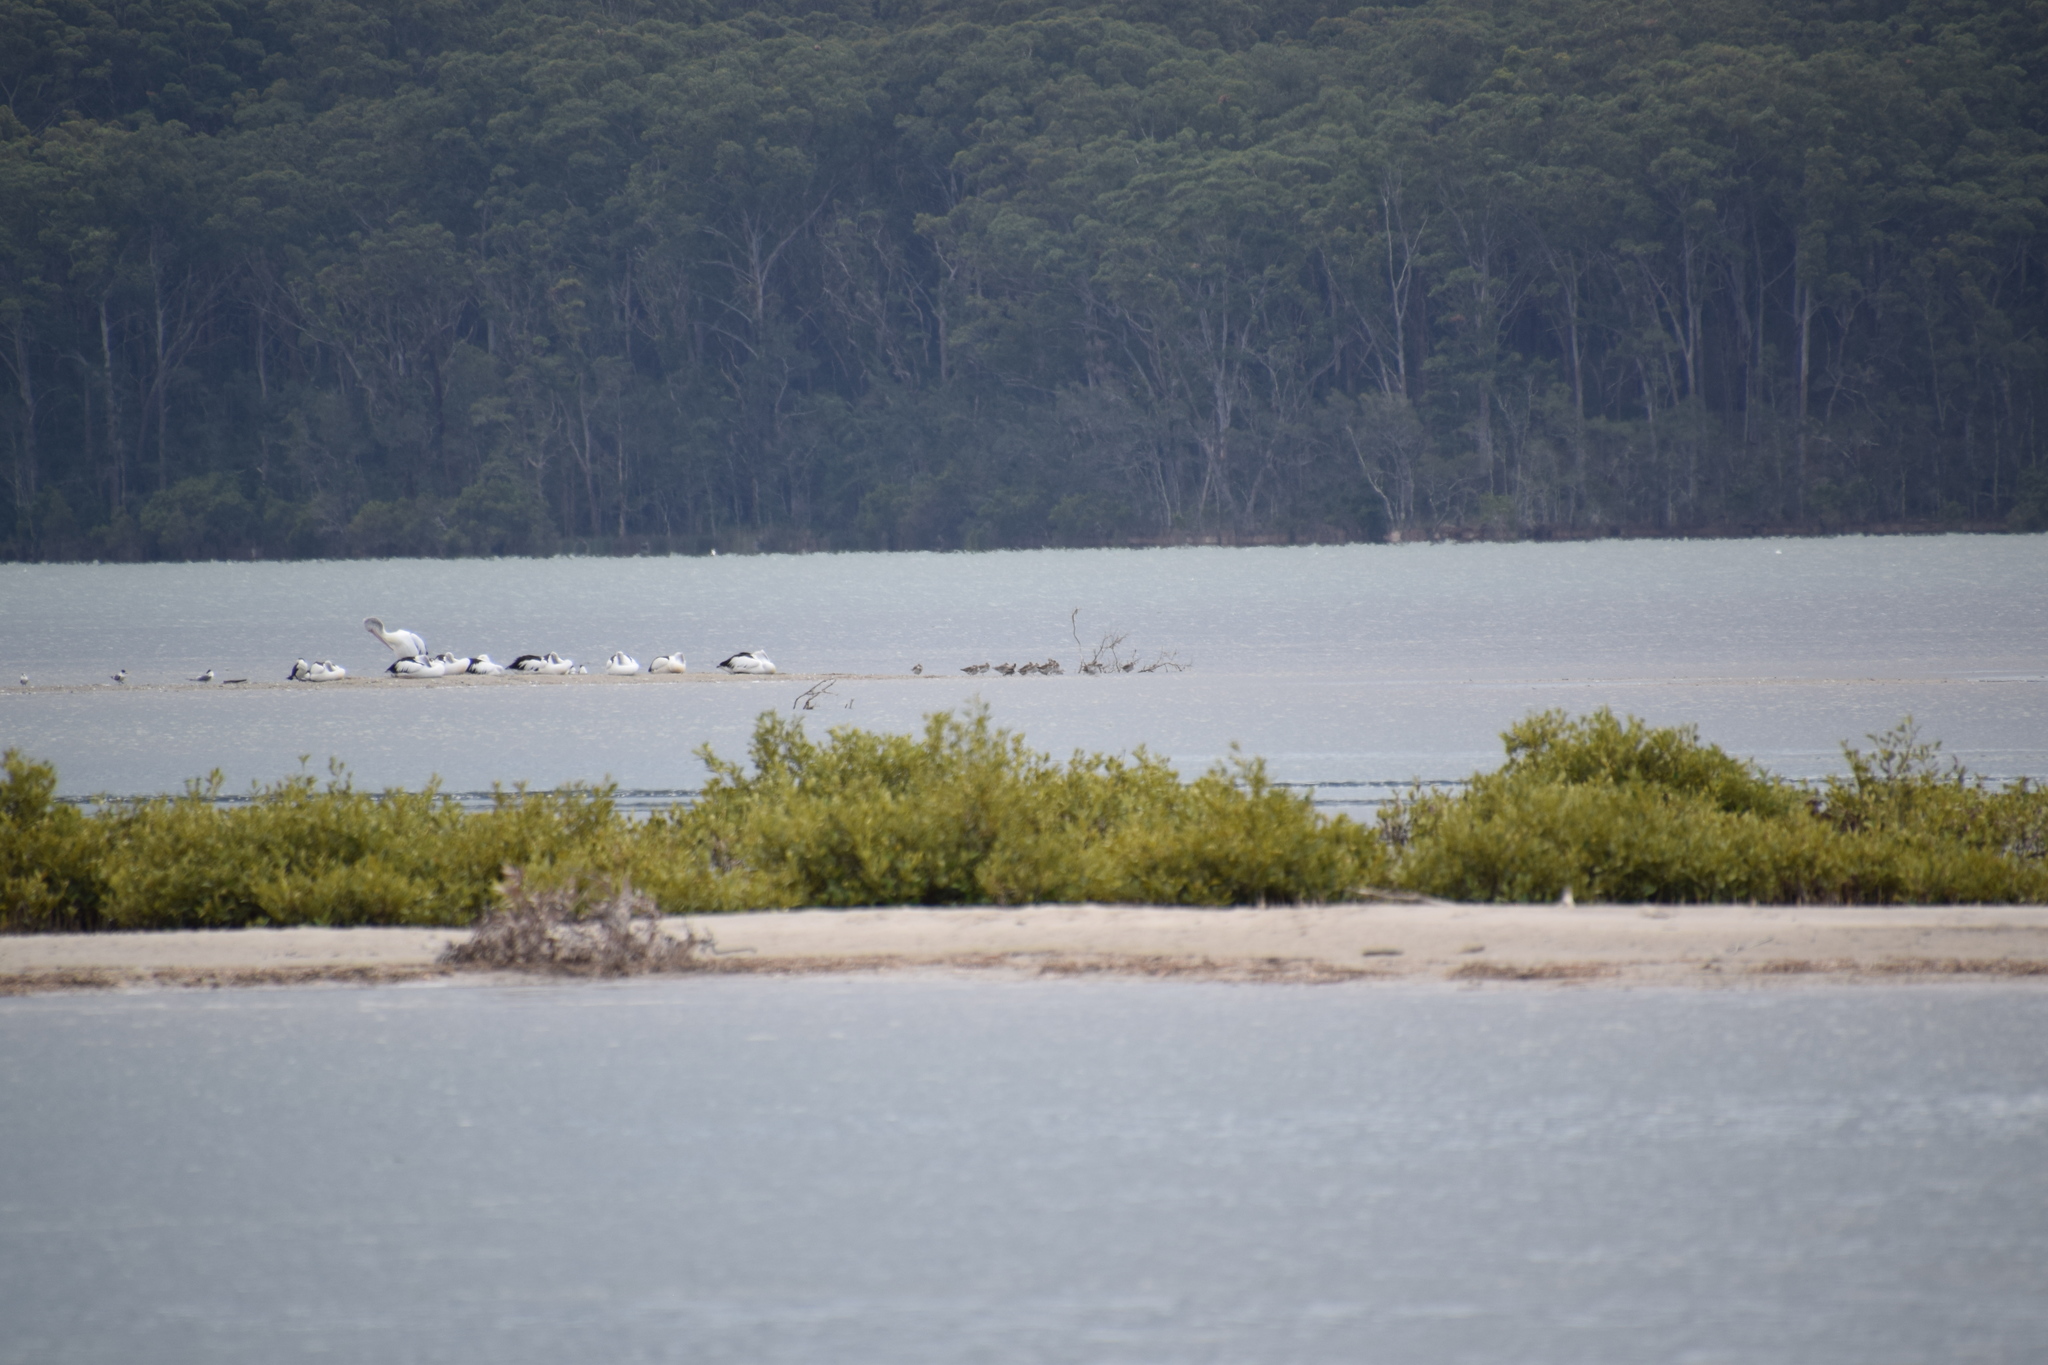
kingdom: Animalia
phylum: Chordata
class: Aves
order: Pelecaniformes
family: Pelecanidae
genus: Pelecanus
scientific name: Pelecanus conspicillatus
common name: Australian pelican
